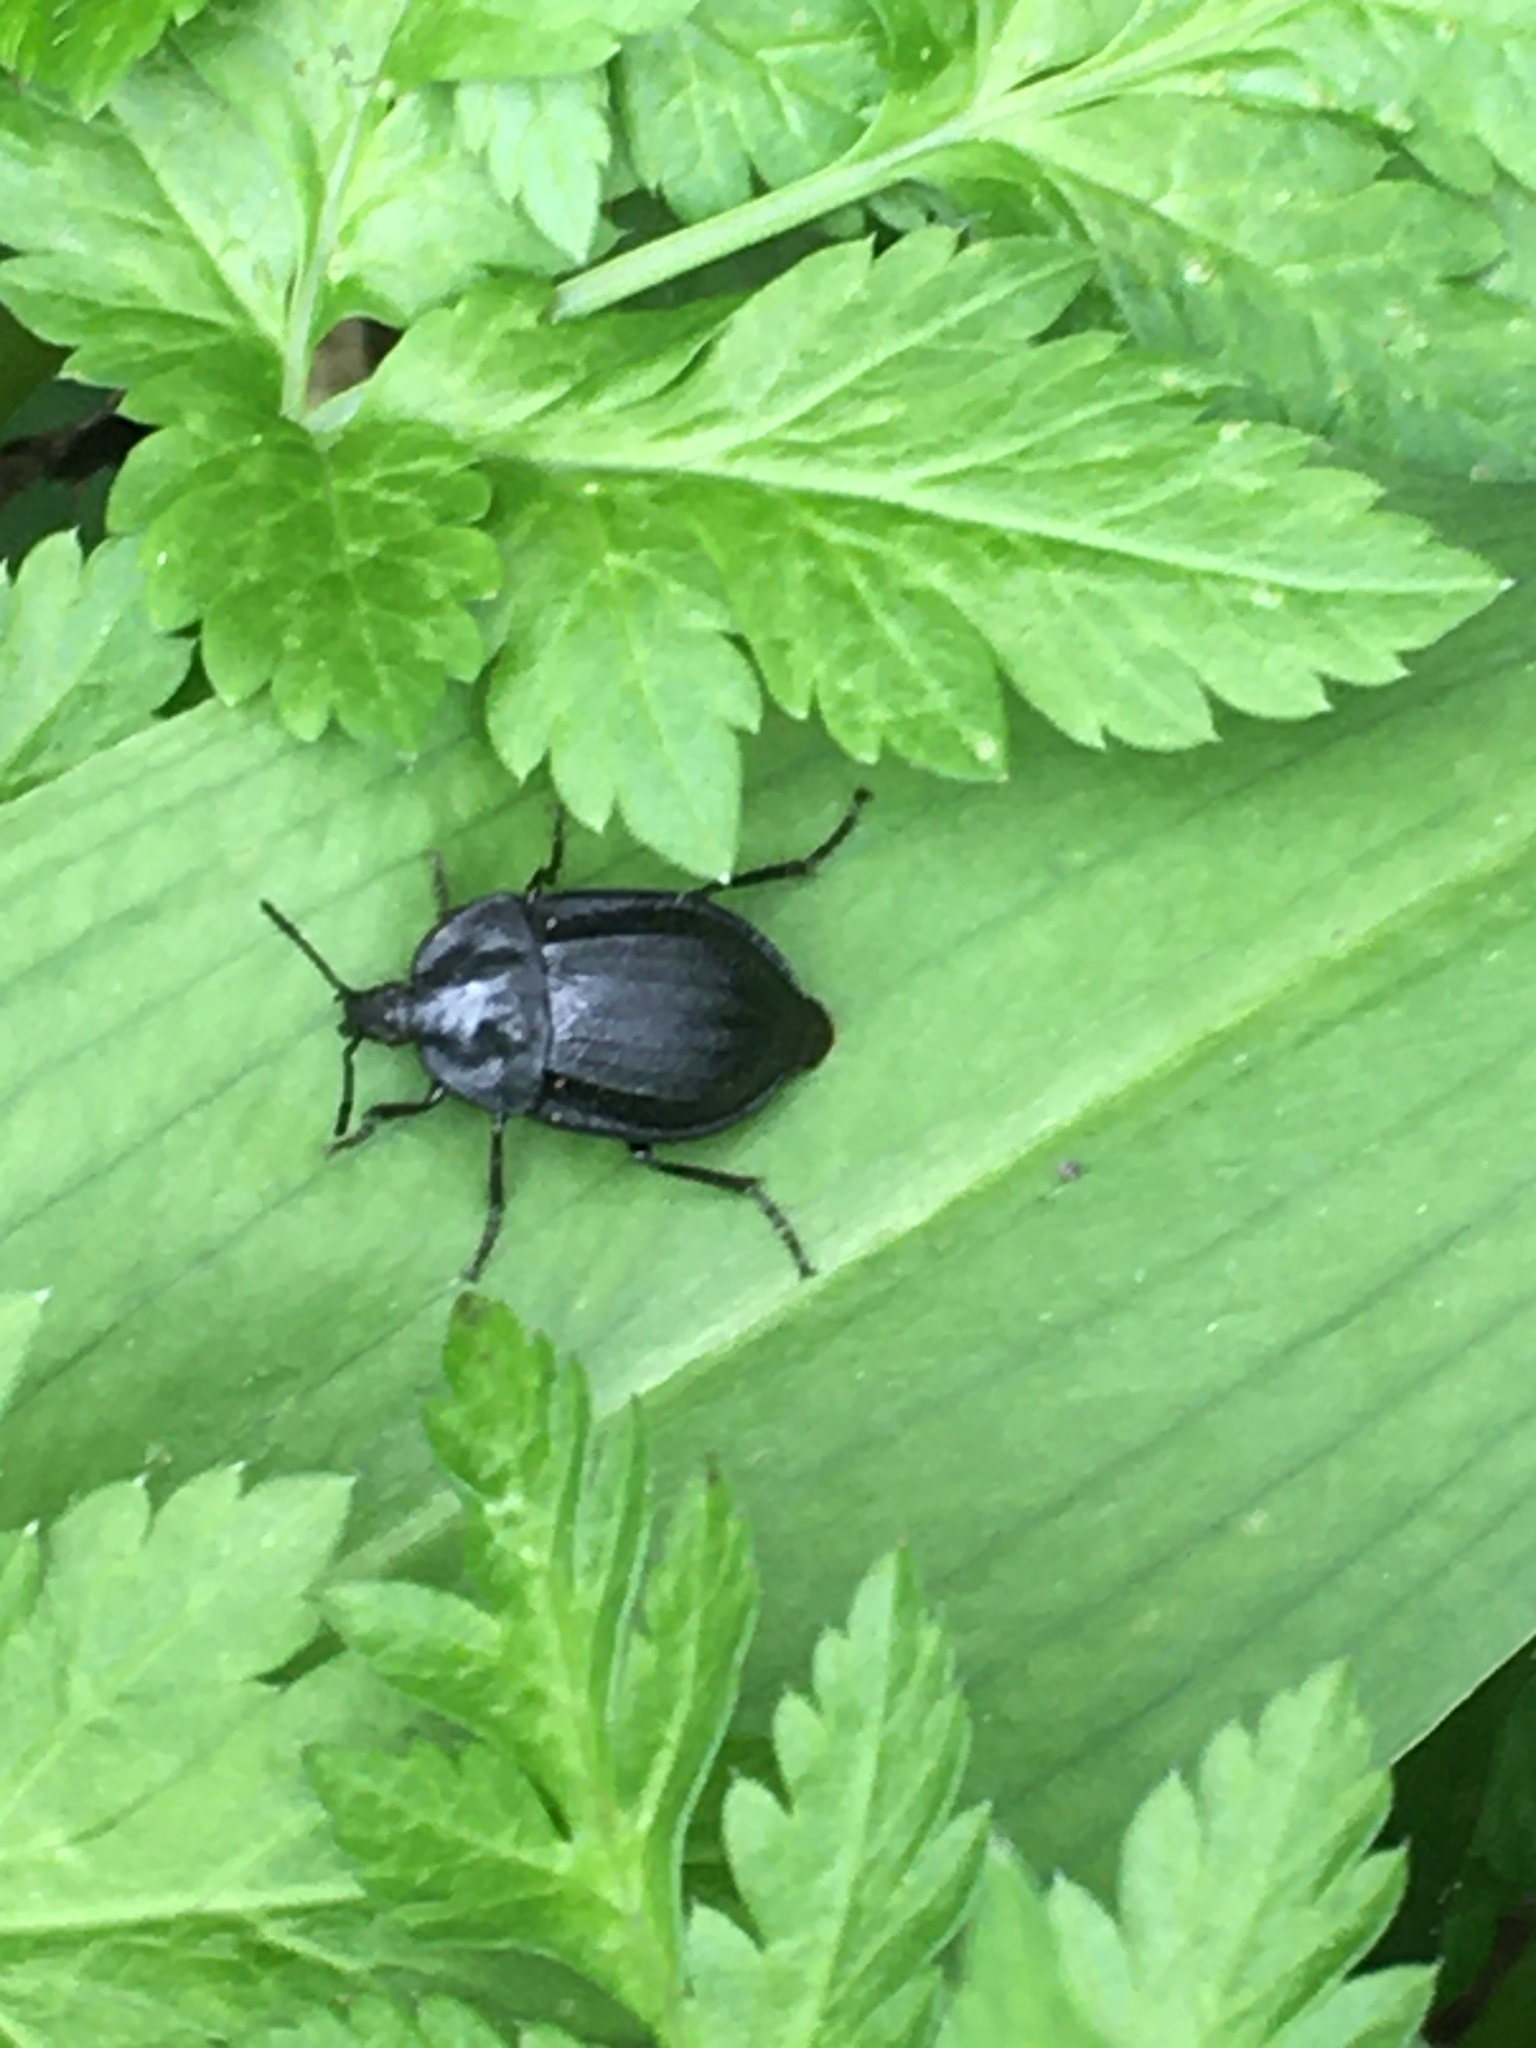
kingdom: Animalia
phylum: Arthropoda
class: Insecta
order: Coleoptera
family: Staphylinidae
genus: Silpha
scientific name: Silpha atrata
